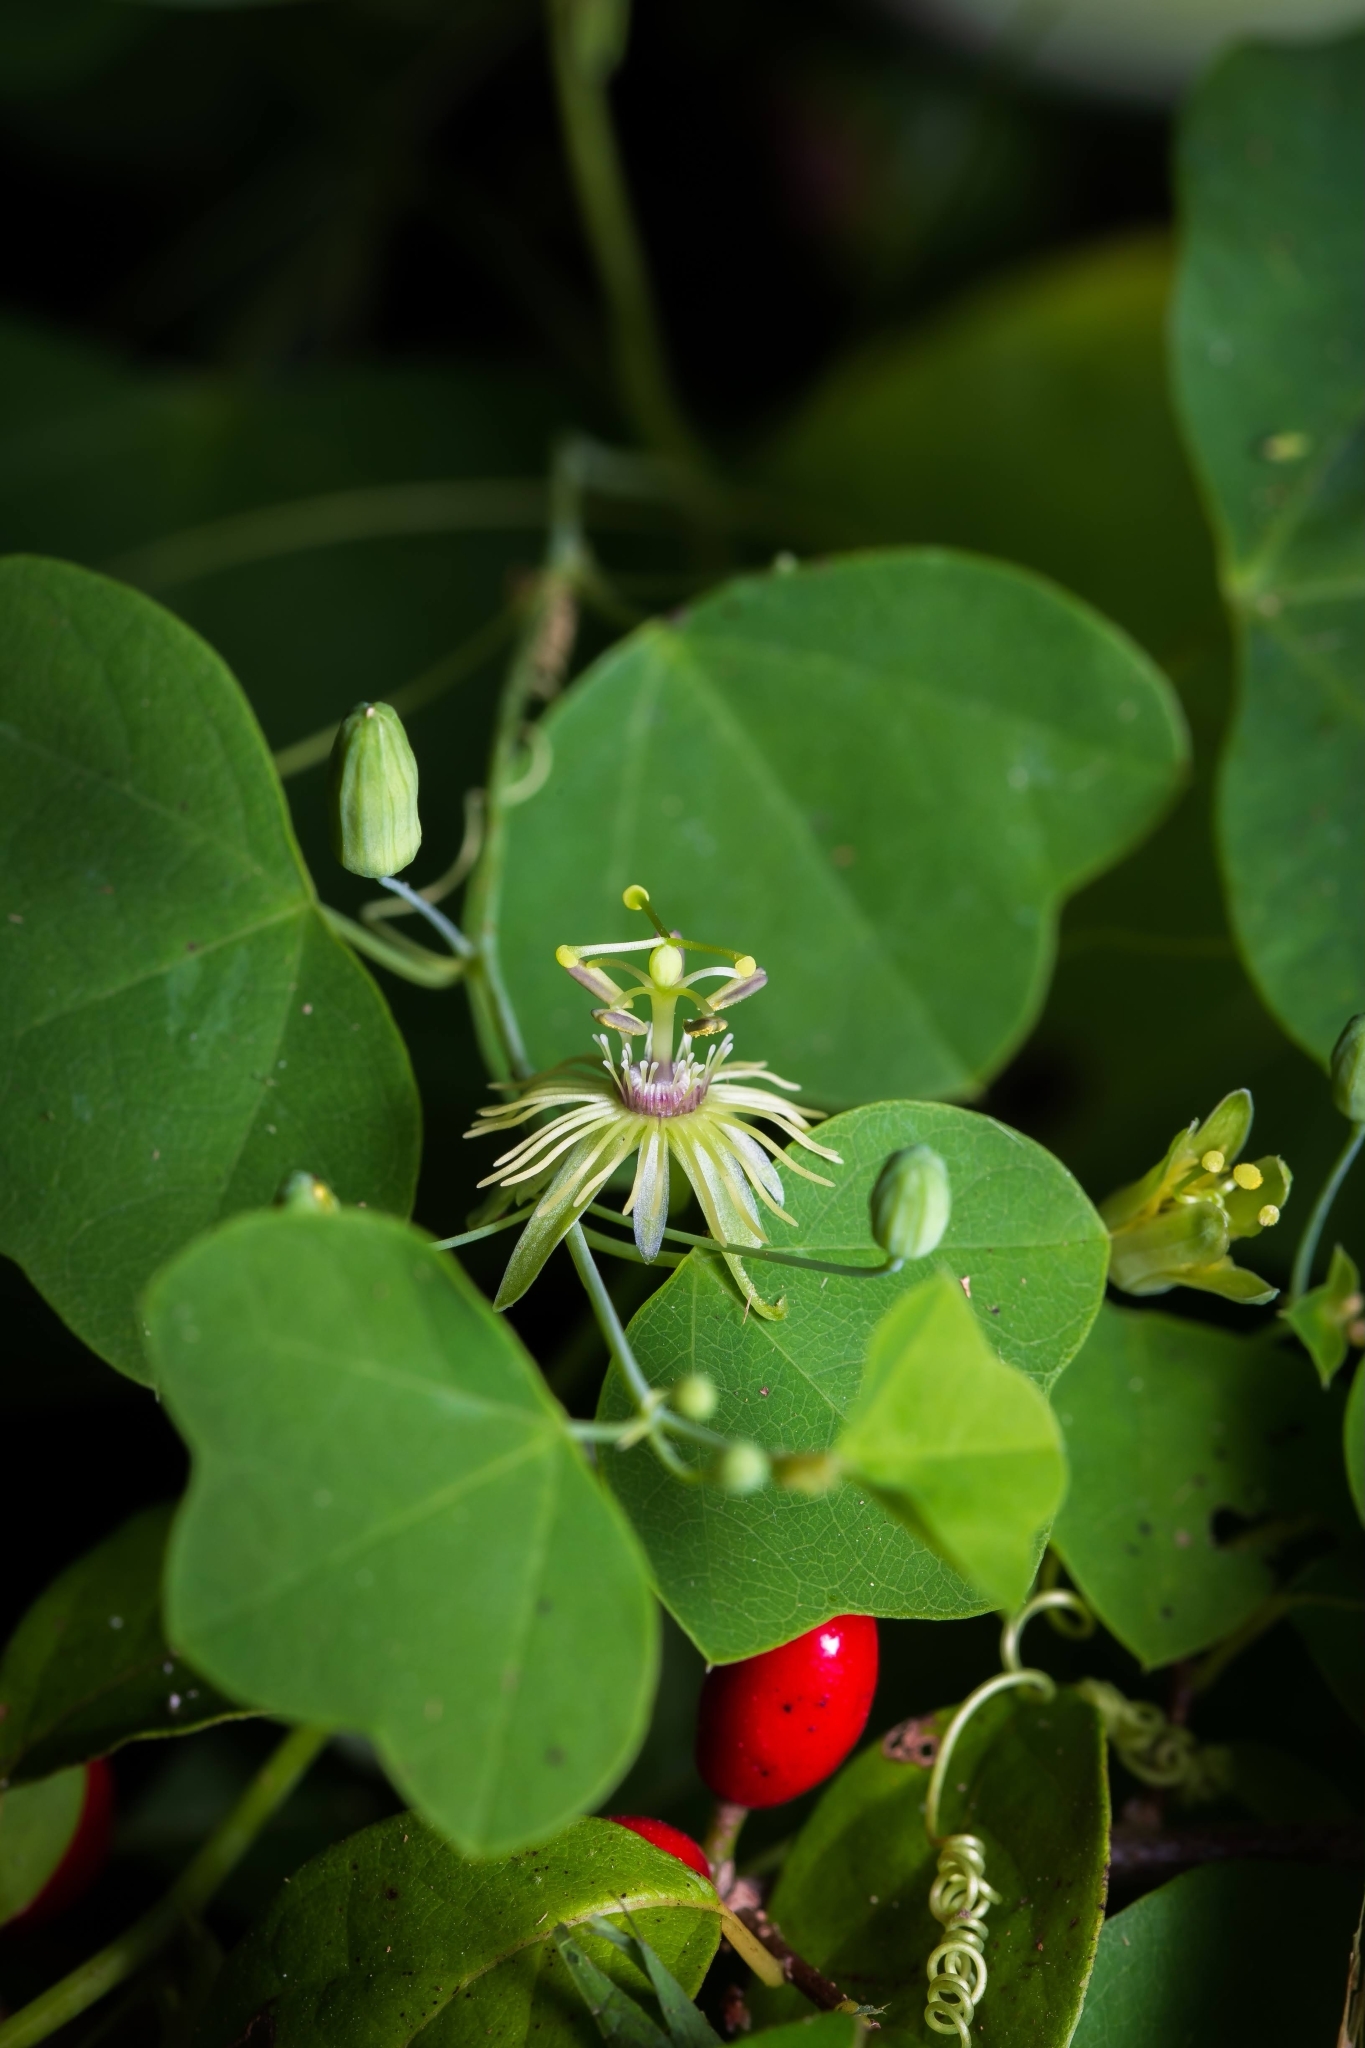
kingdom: Plantae
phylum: Tracheophyta
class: Magnoliopsida
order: Malpighiales
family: Passifloraceae
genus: Passiflora
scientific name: Passiflora lutea
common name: Yellow passionflower
